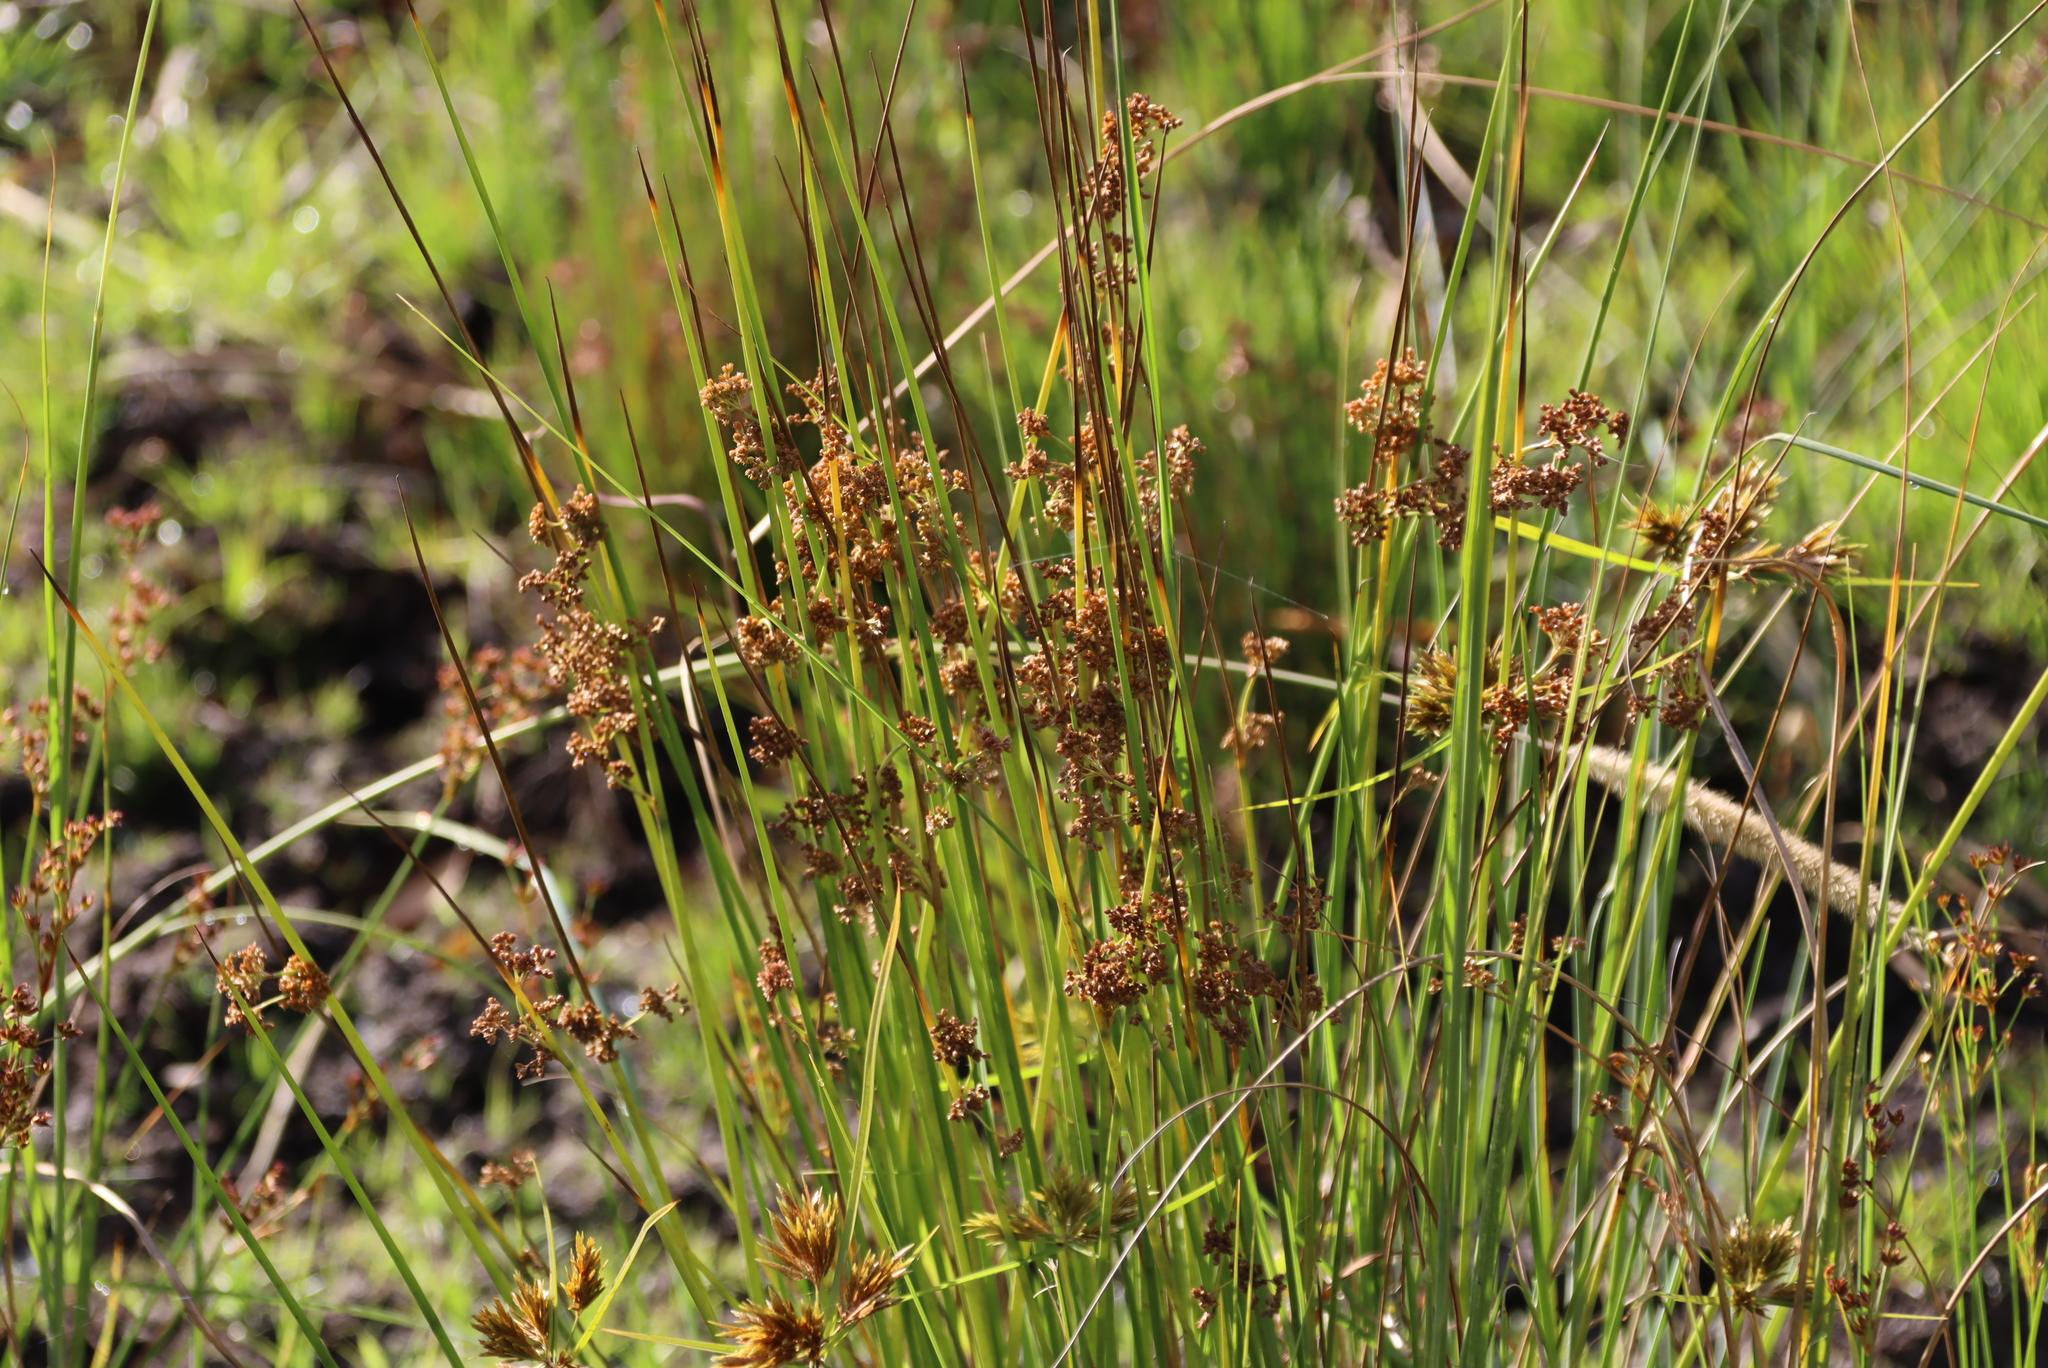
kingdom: Plantae
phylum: Tracheophyta
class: Liliopsida
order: Poales
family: Juncaceae
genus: Juncus
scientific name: Juncus effusus
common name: Soft rush
